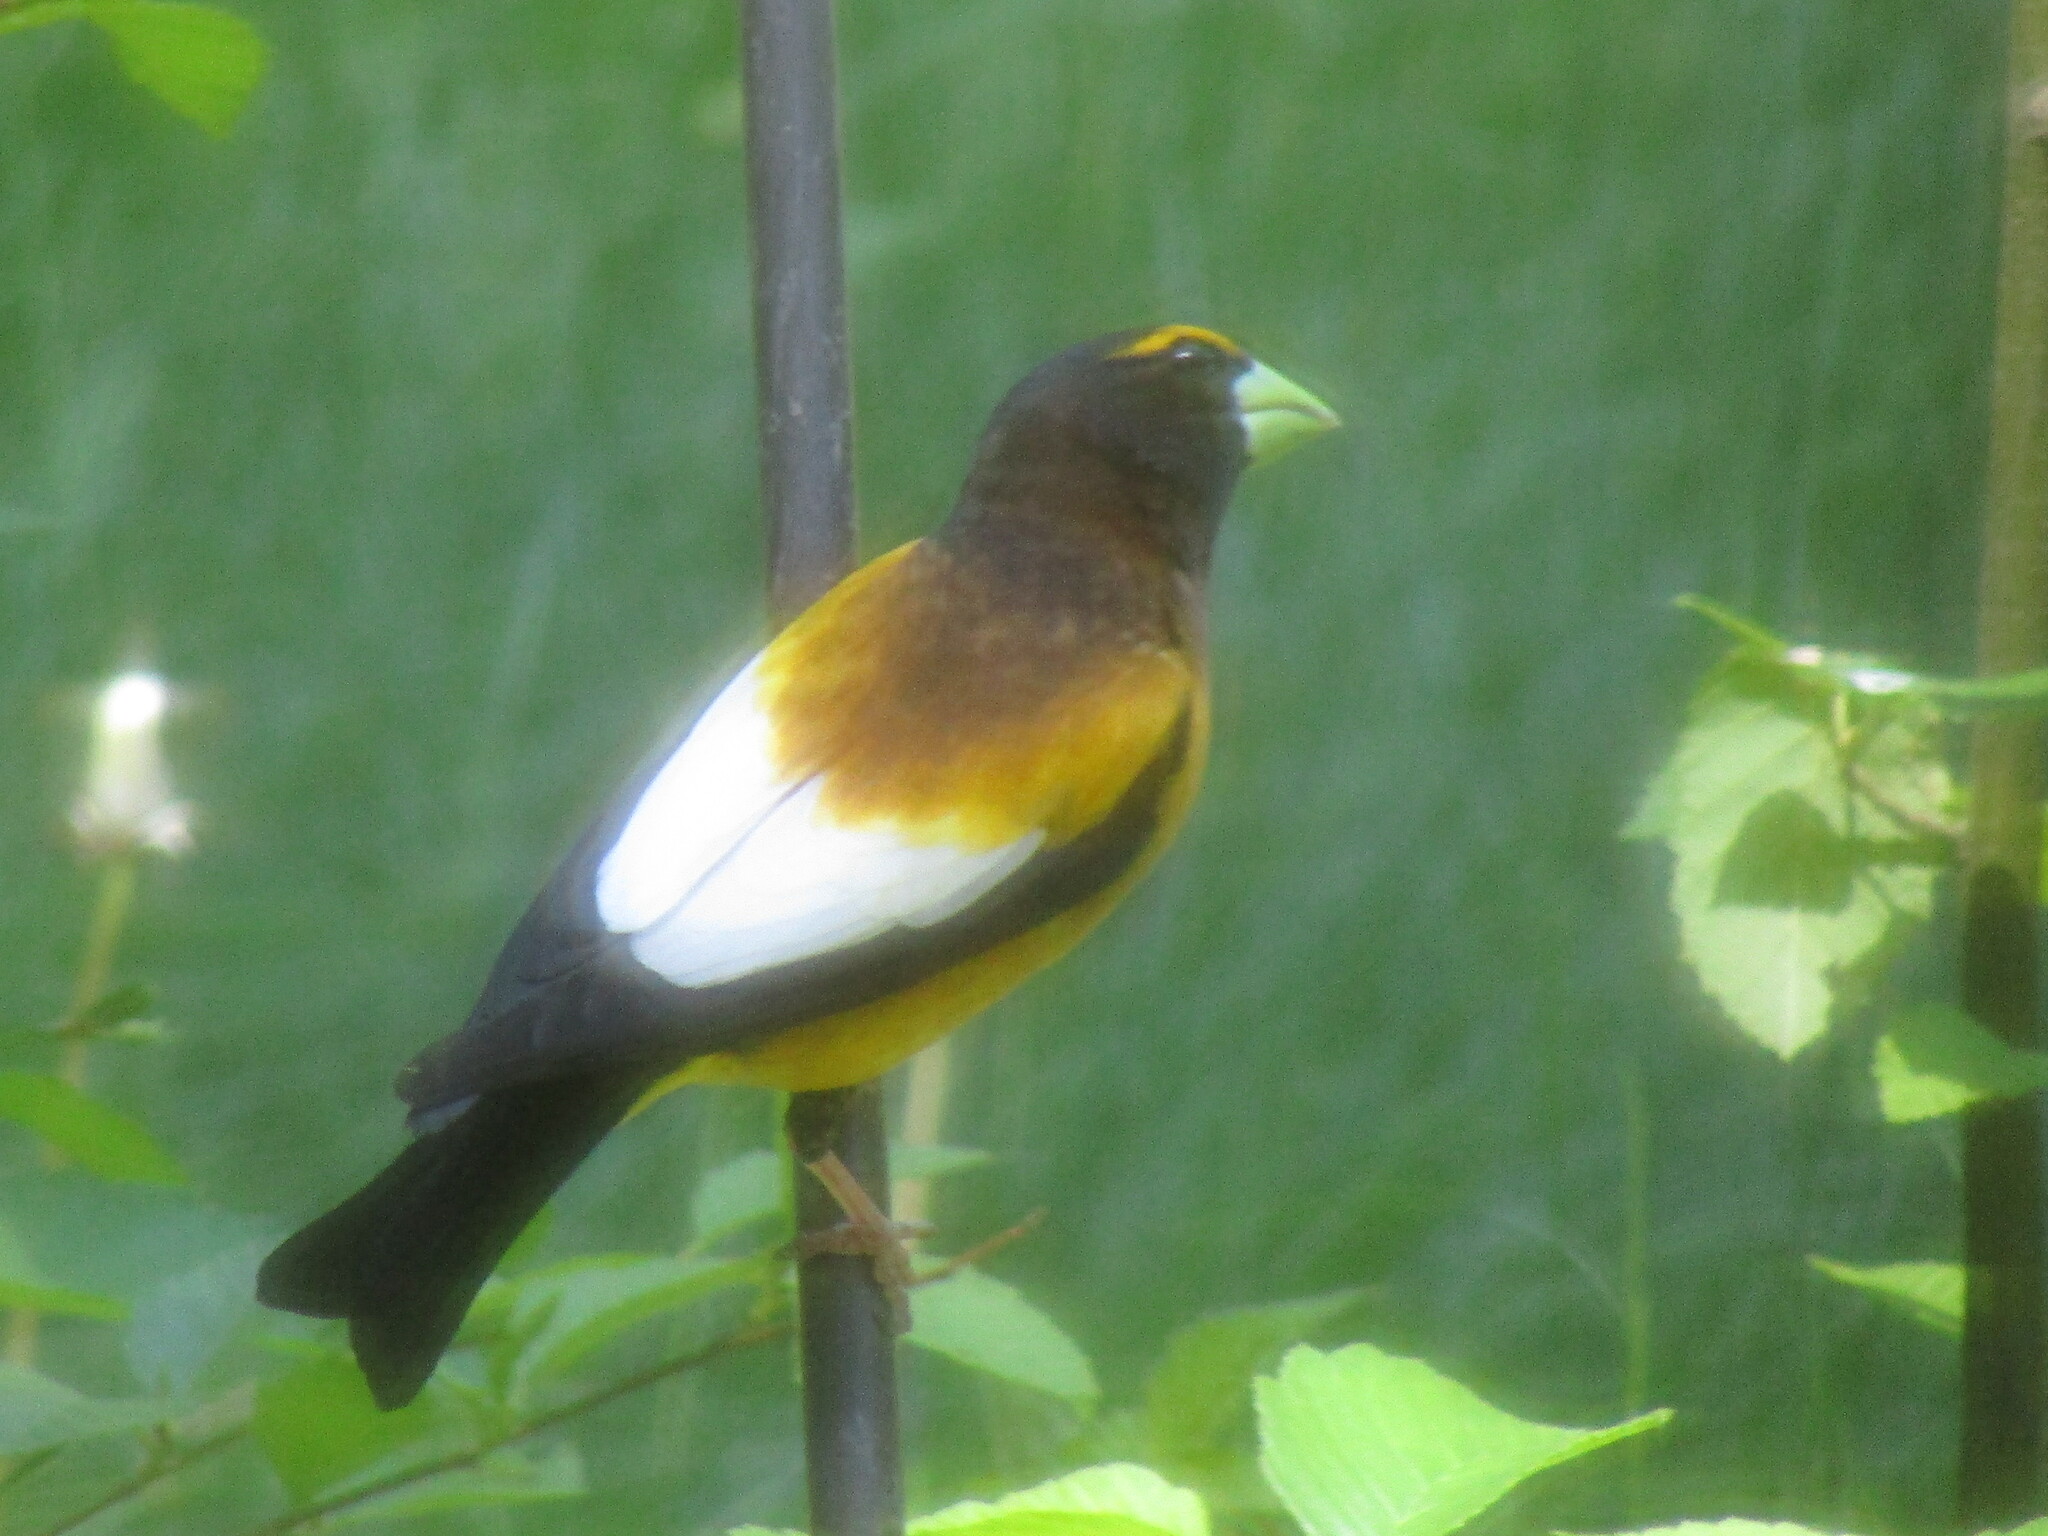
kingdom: Animalia
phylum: Chordata
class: Aves
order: Passeriformes
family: Fringillidae
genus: Hesperiphona
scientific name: Hesperiphona vespertina
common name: Evening grosbeak
